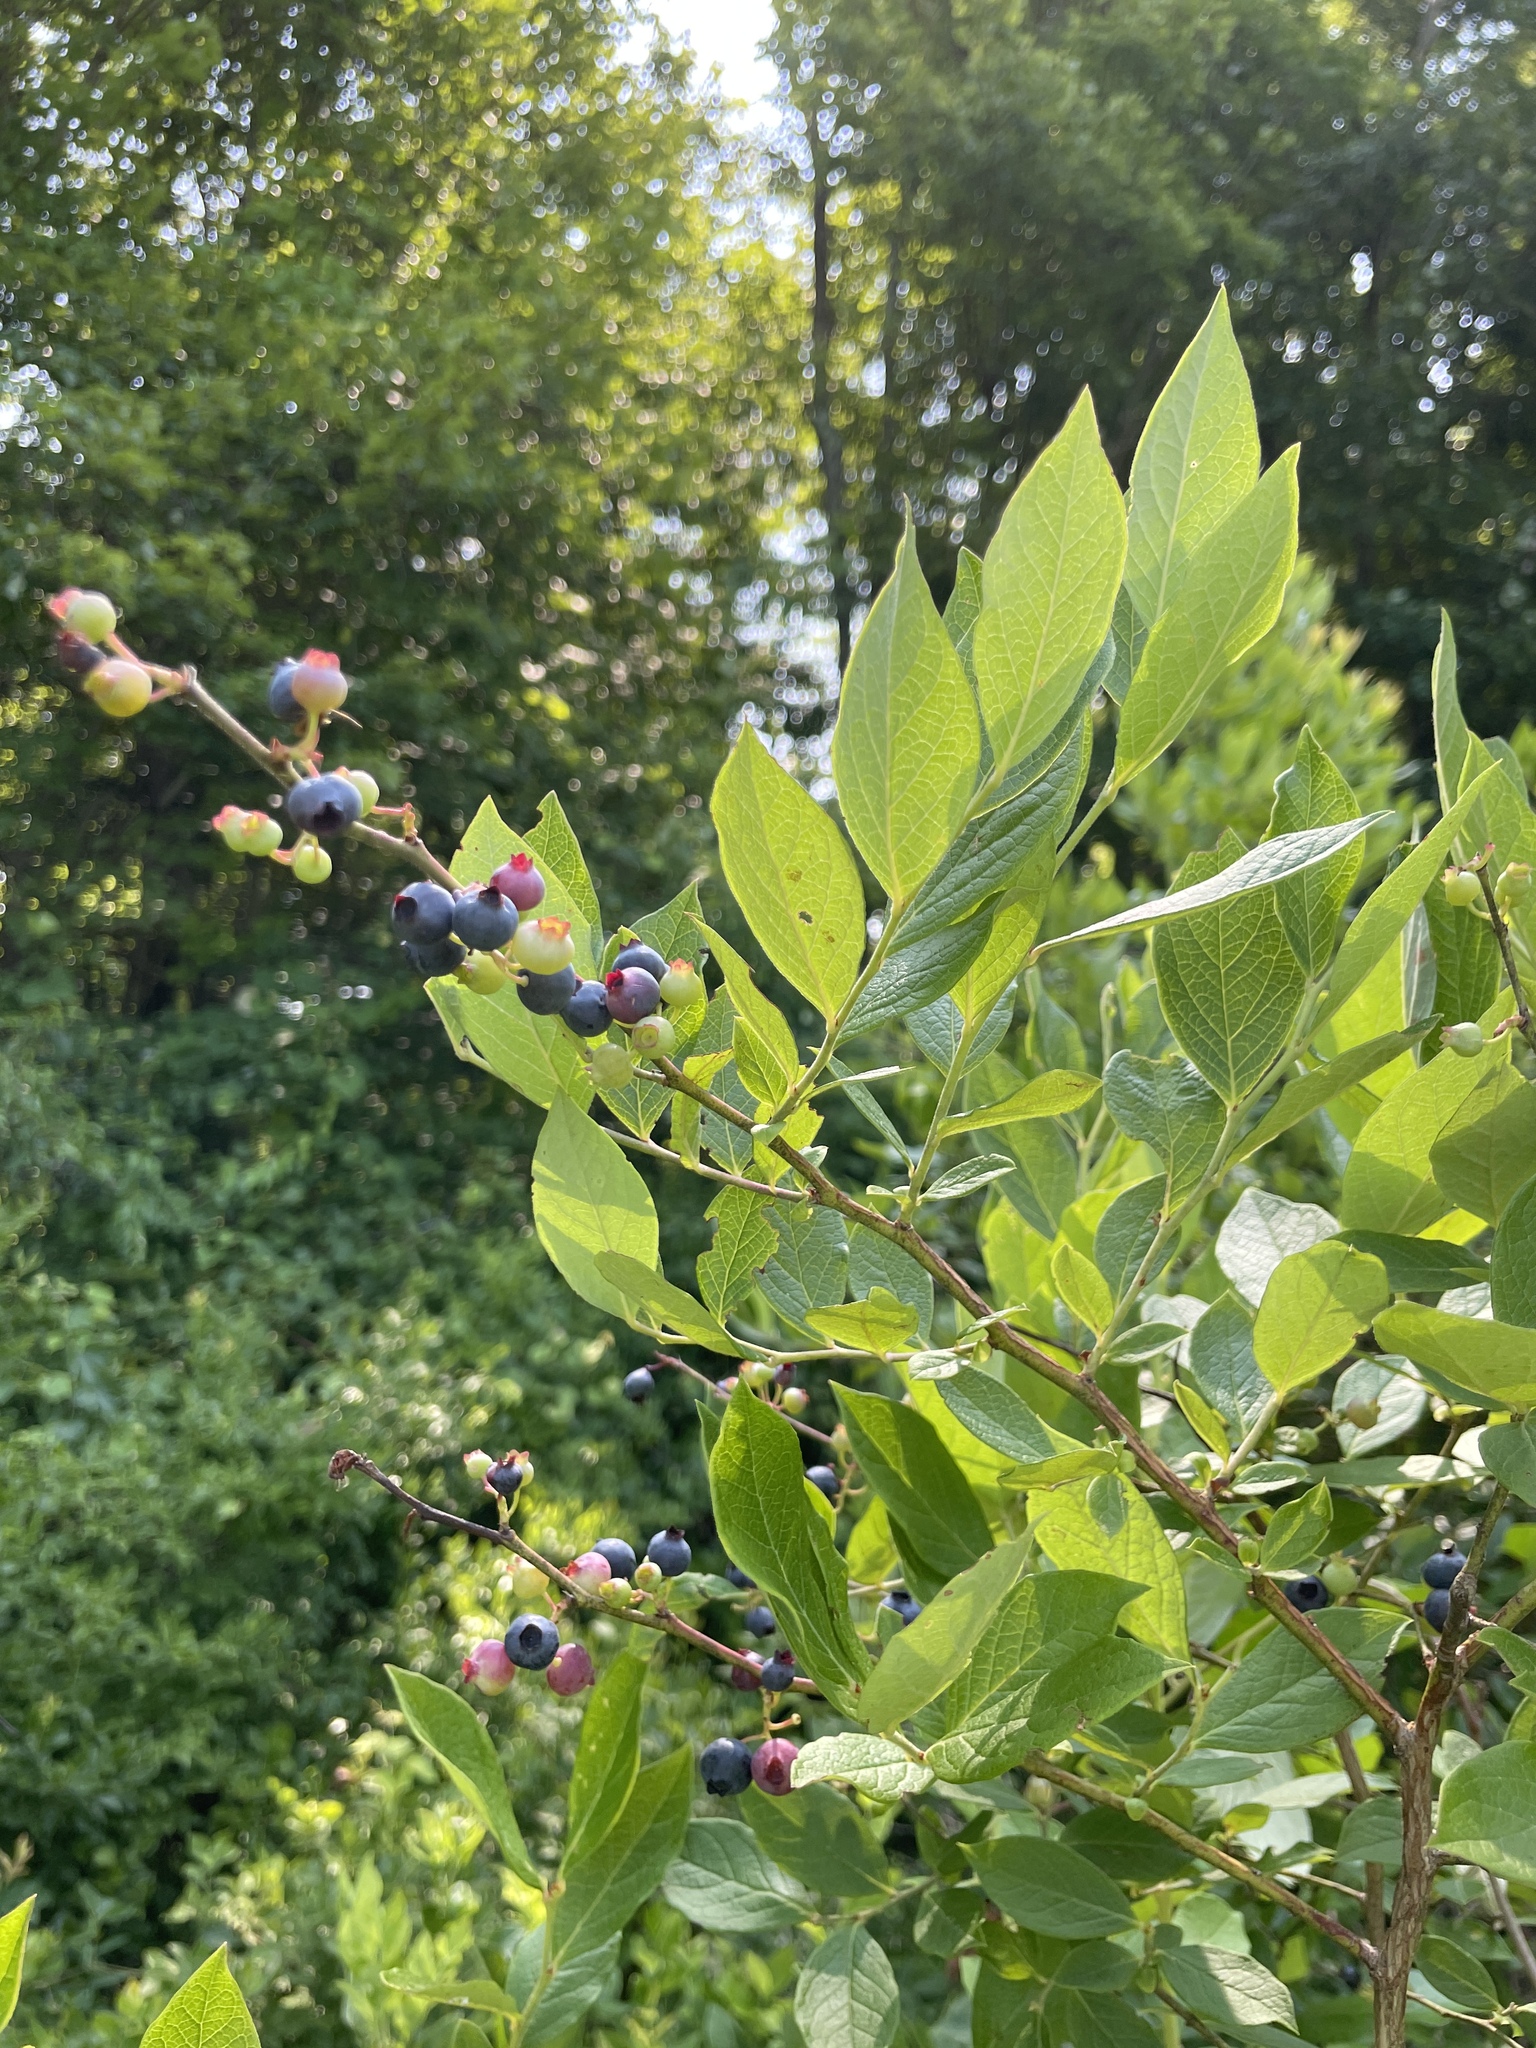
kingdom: Plantae
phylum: Tracheophyta
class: Magnoliopsida
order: Ericales
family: Ericaceae
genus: Vaccinium
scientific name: Vaccinium corymbosum
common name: Blueberry
